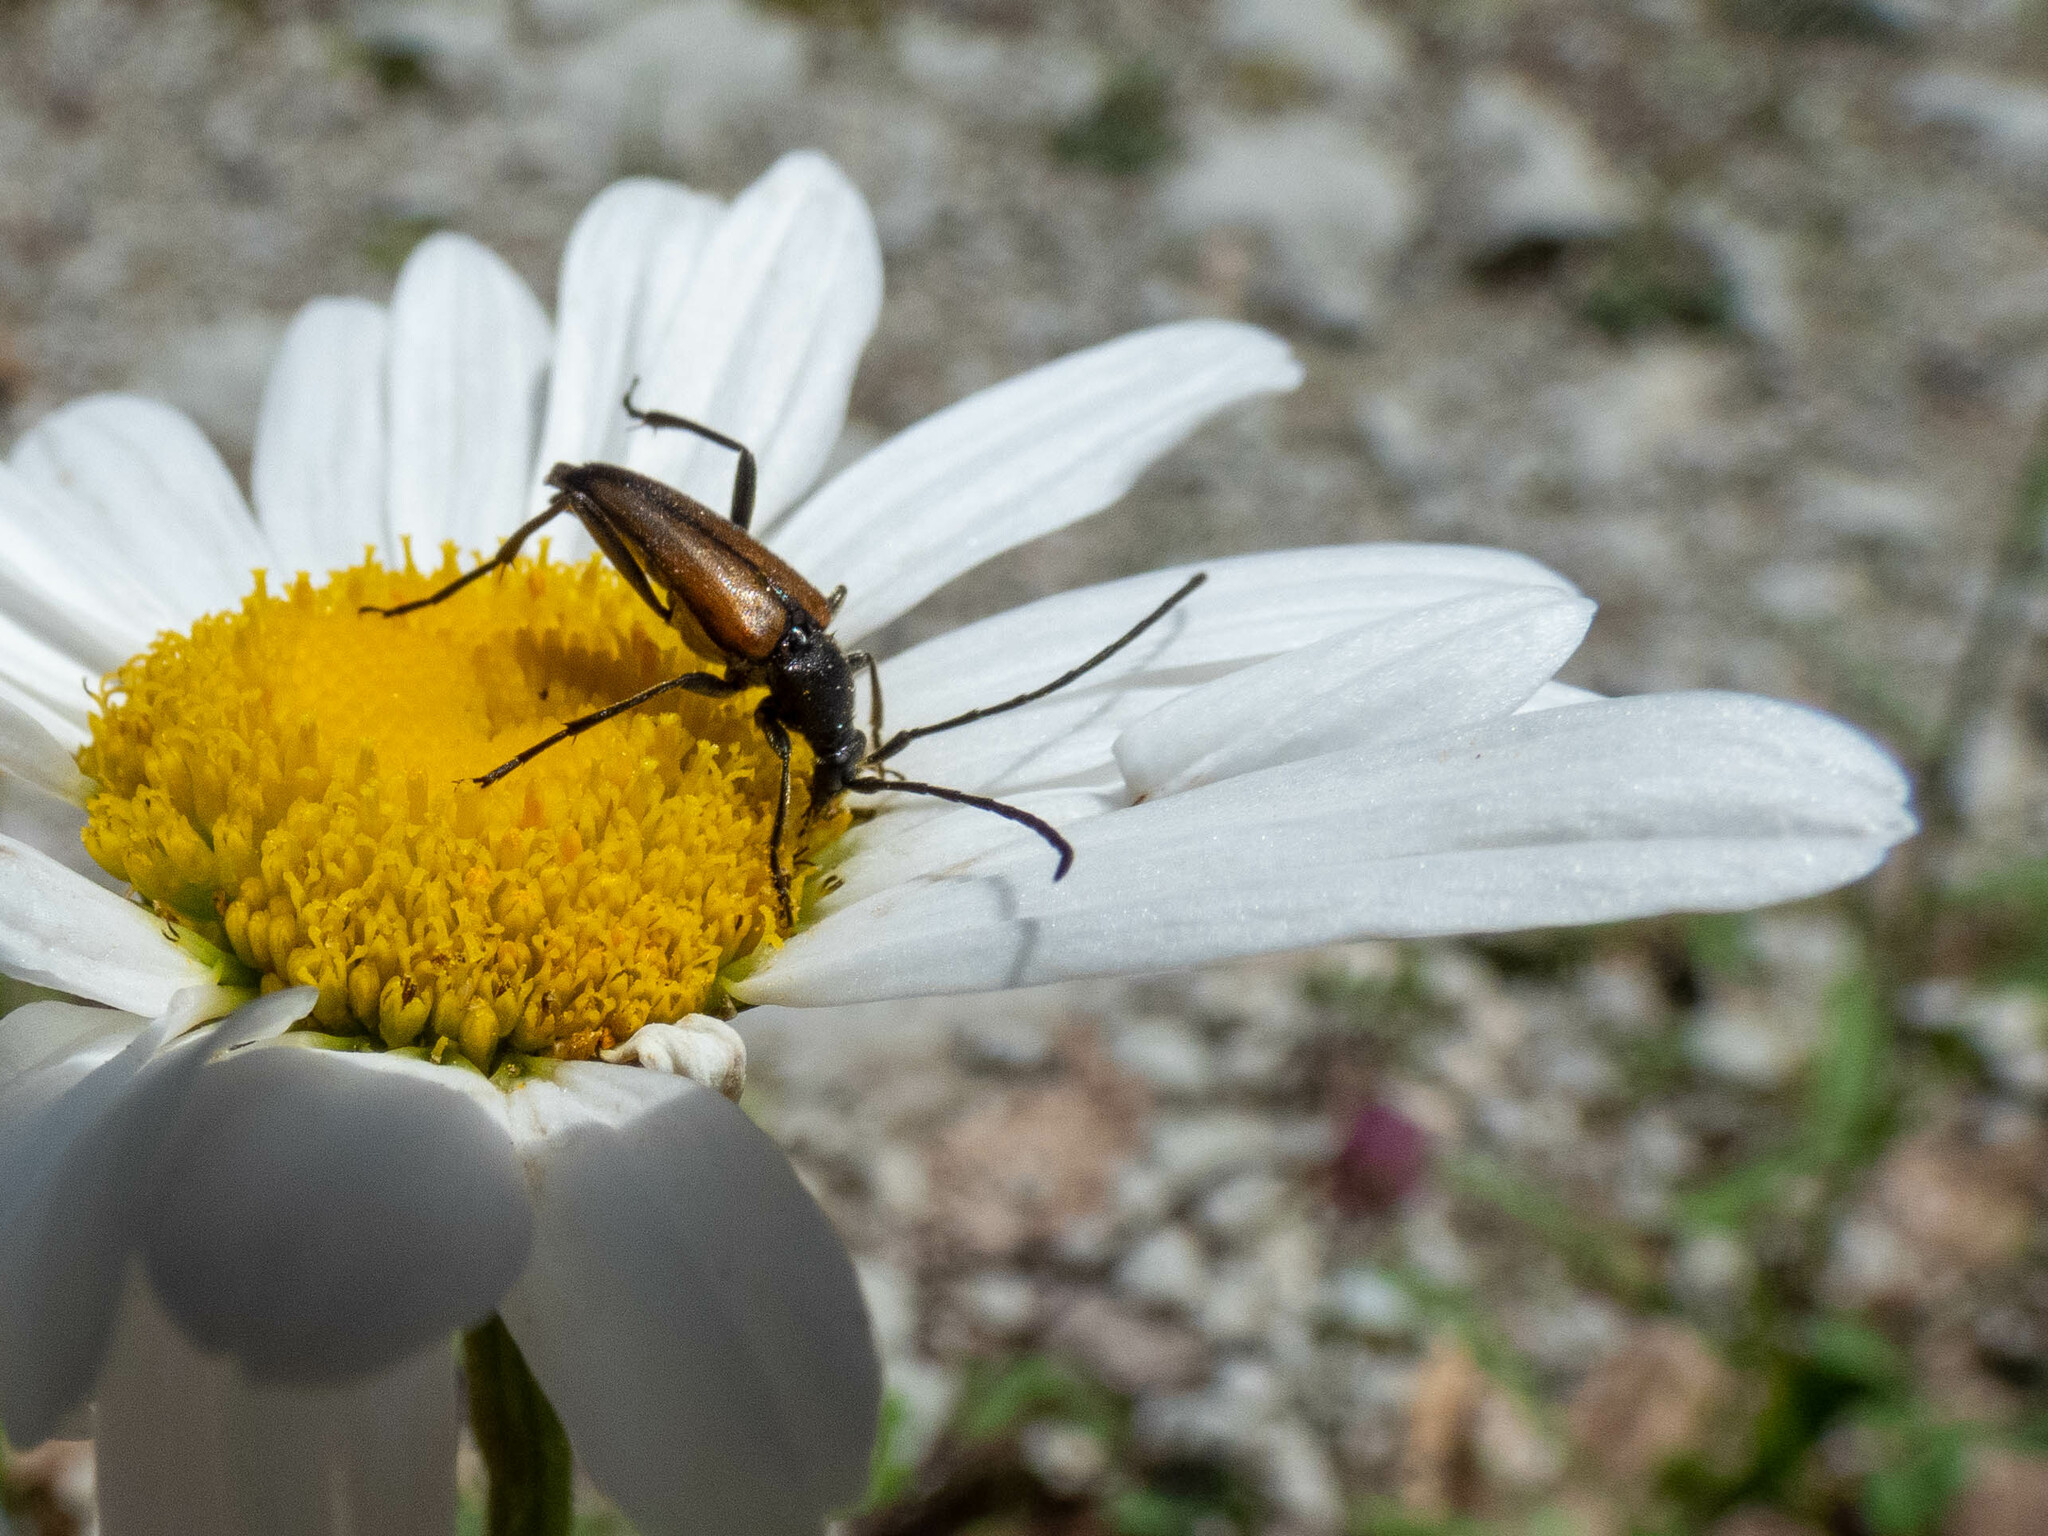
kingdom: Animalia
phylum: Arthropoda
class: Insecta
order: Coleoptera
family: Cerambycidae
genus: Stenurella
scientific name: Stenurella melanura
